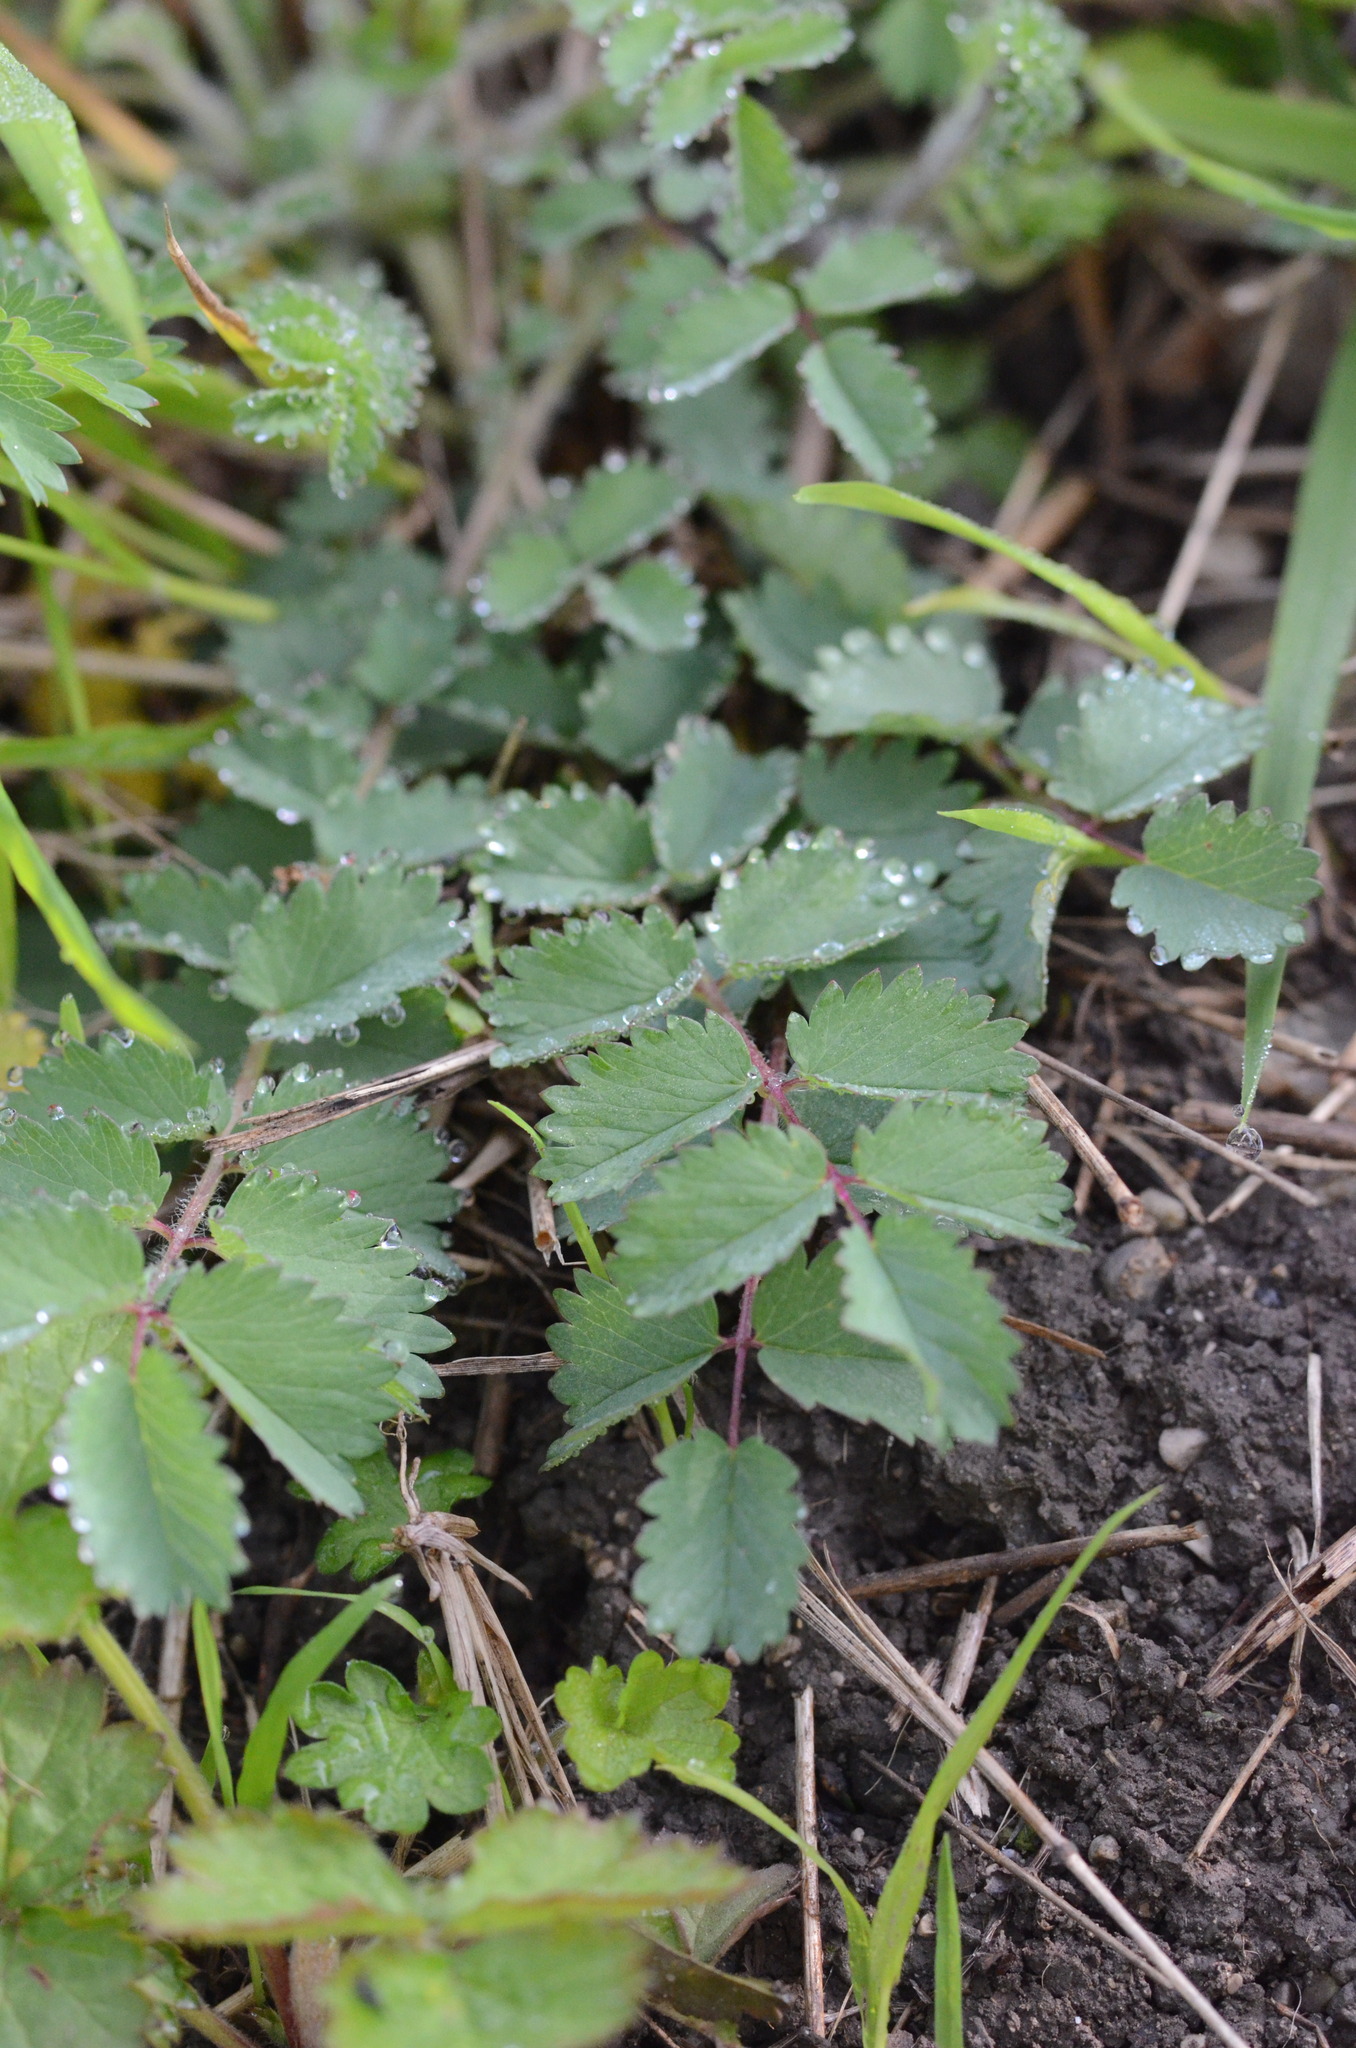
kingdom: Plantae
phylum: Tracheophyta
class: Magnoliopsida
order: Rosales
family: Rosaceae
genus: Poterium
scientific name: Poterium sanguisorba
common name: Salad burnet
